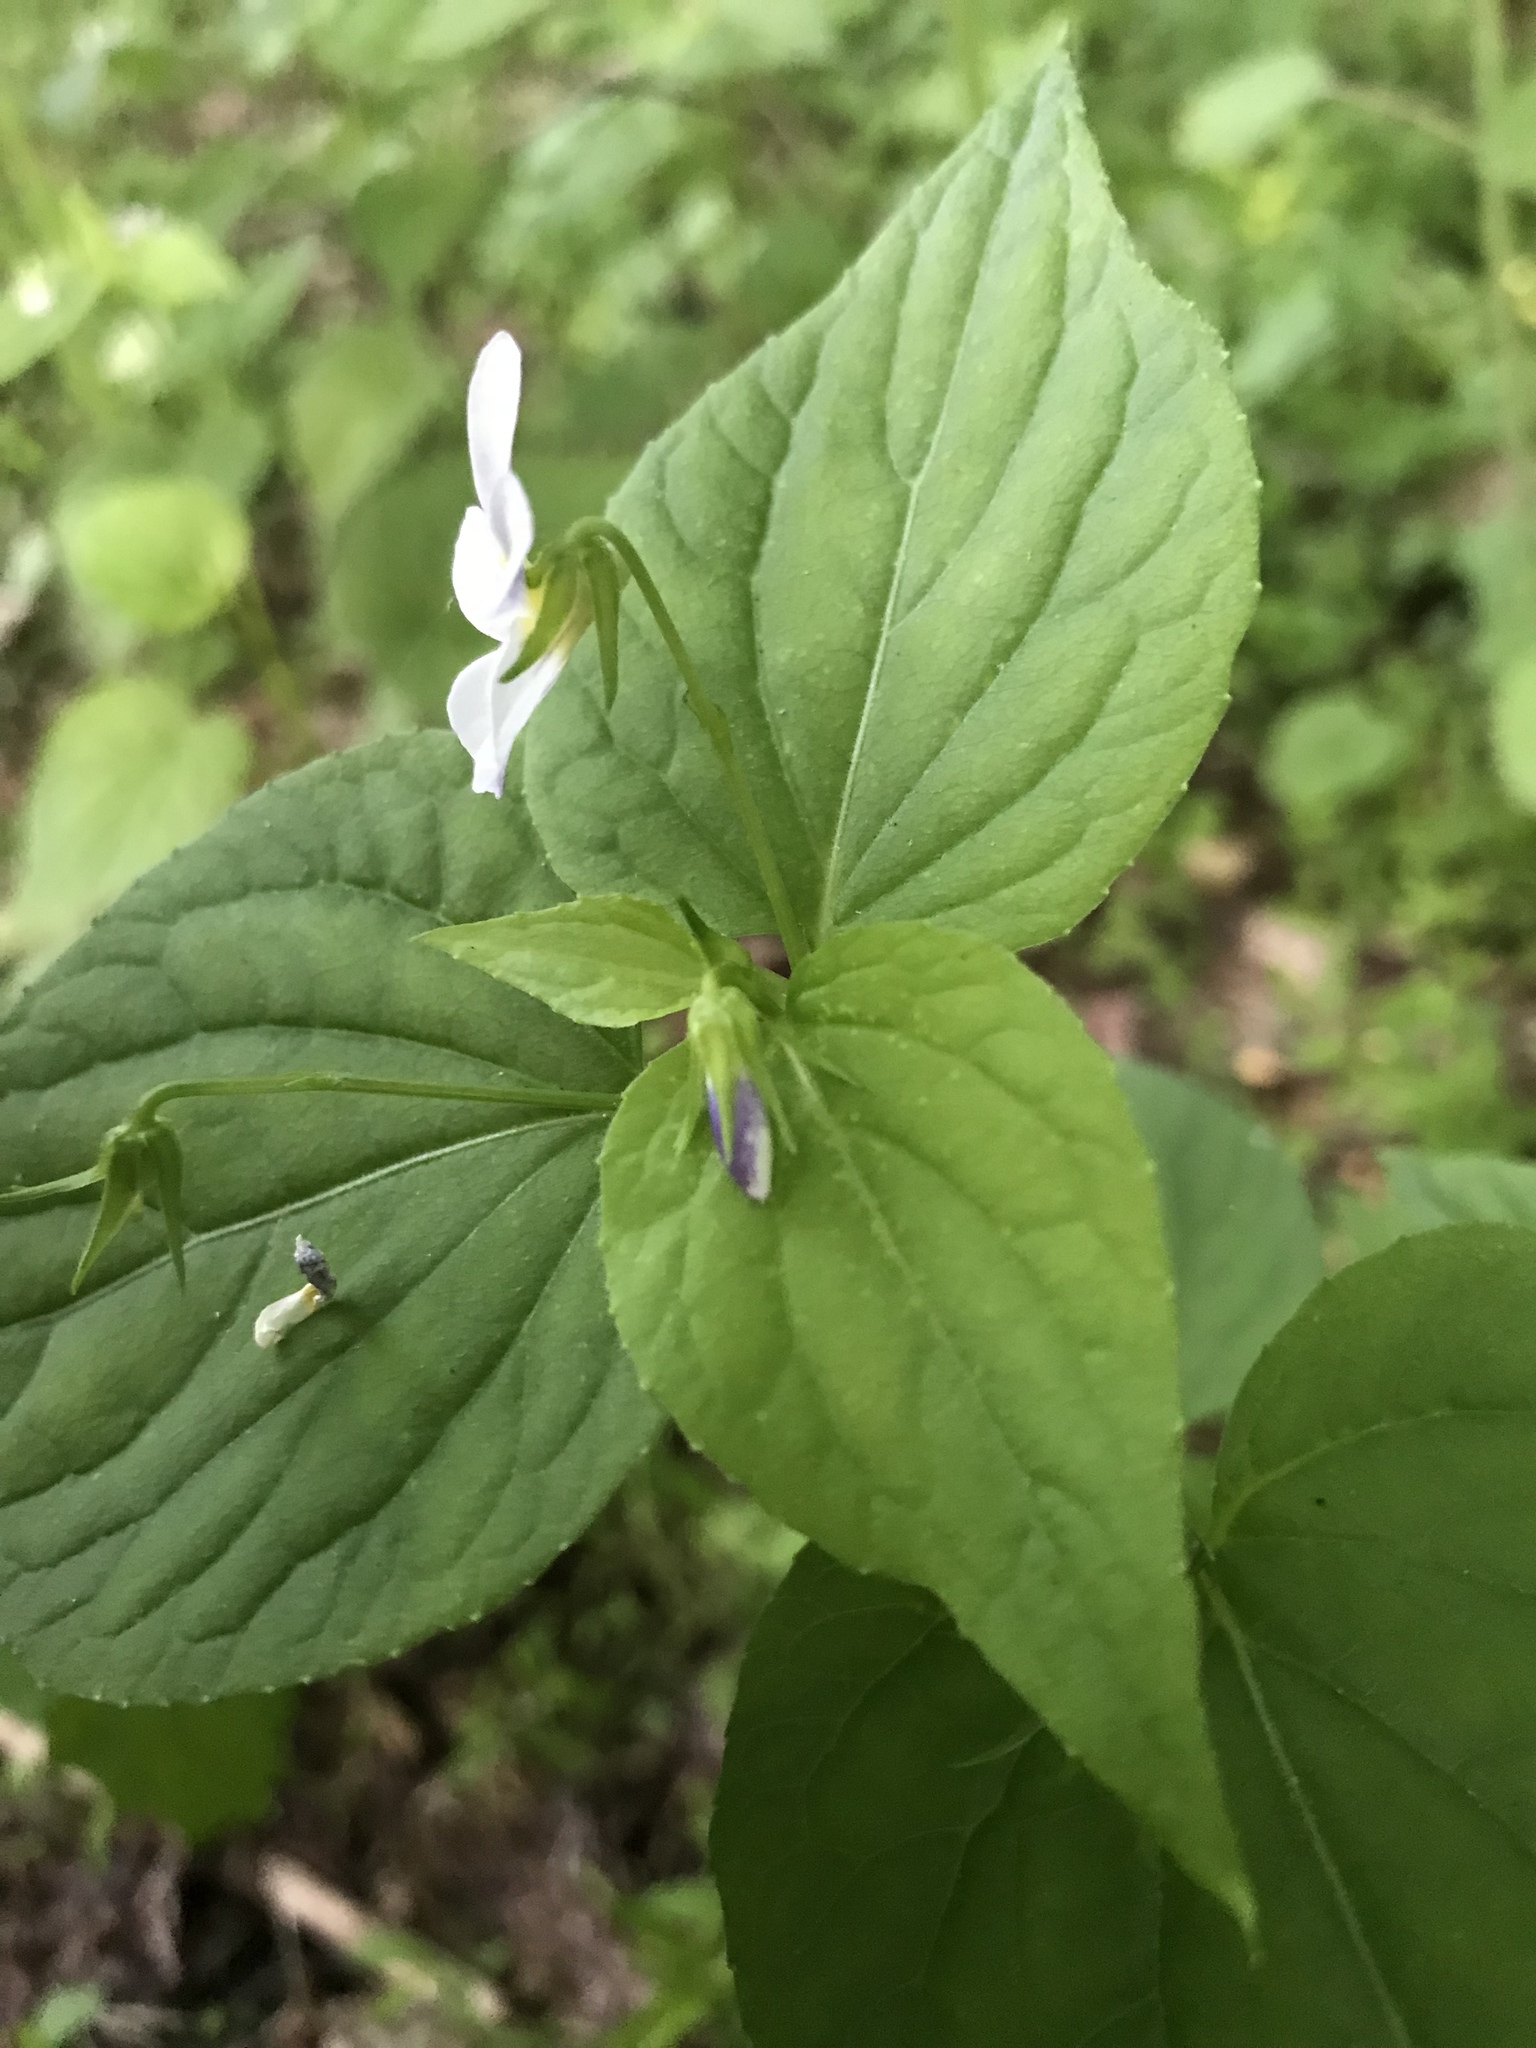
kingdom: Plantae
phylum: Tracheophyta
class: Magnoliopsida
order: Malpighiales
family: Violaceae
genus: Viola
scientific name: Viola canadensis
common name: Canada violet
